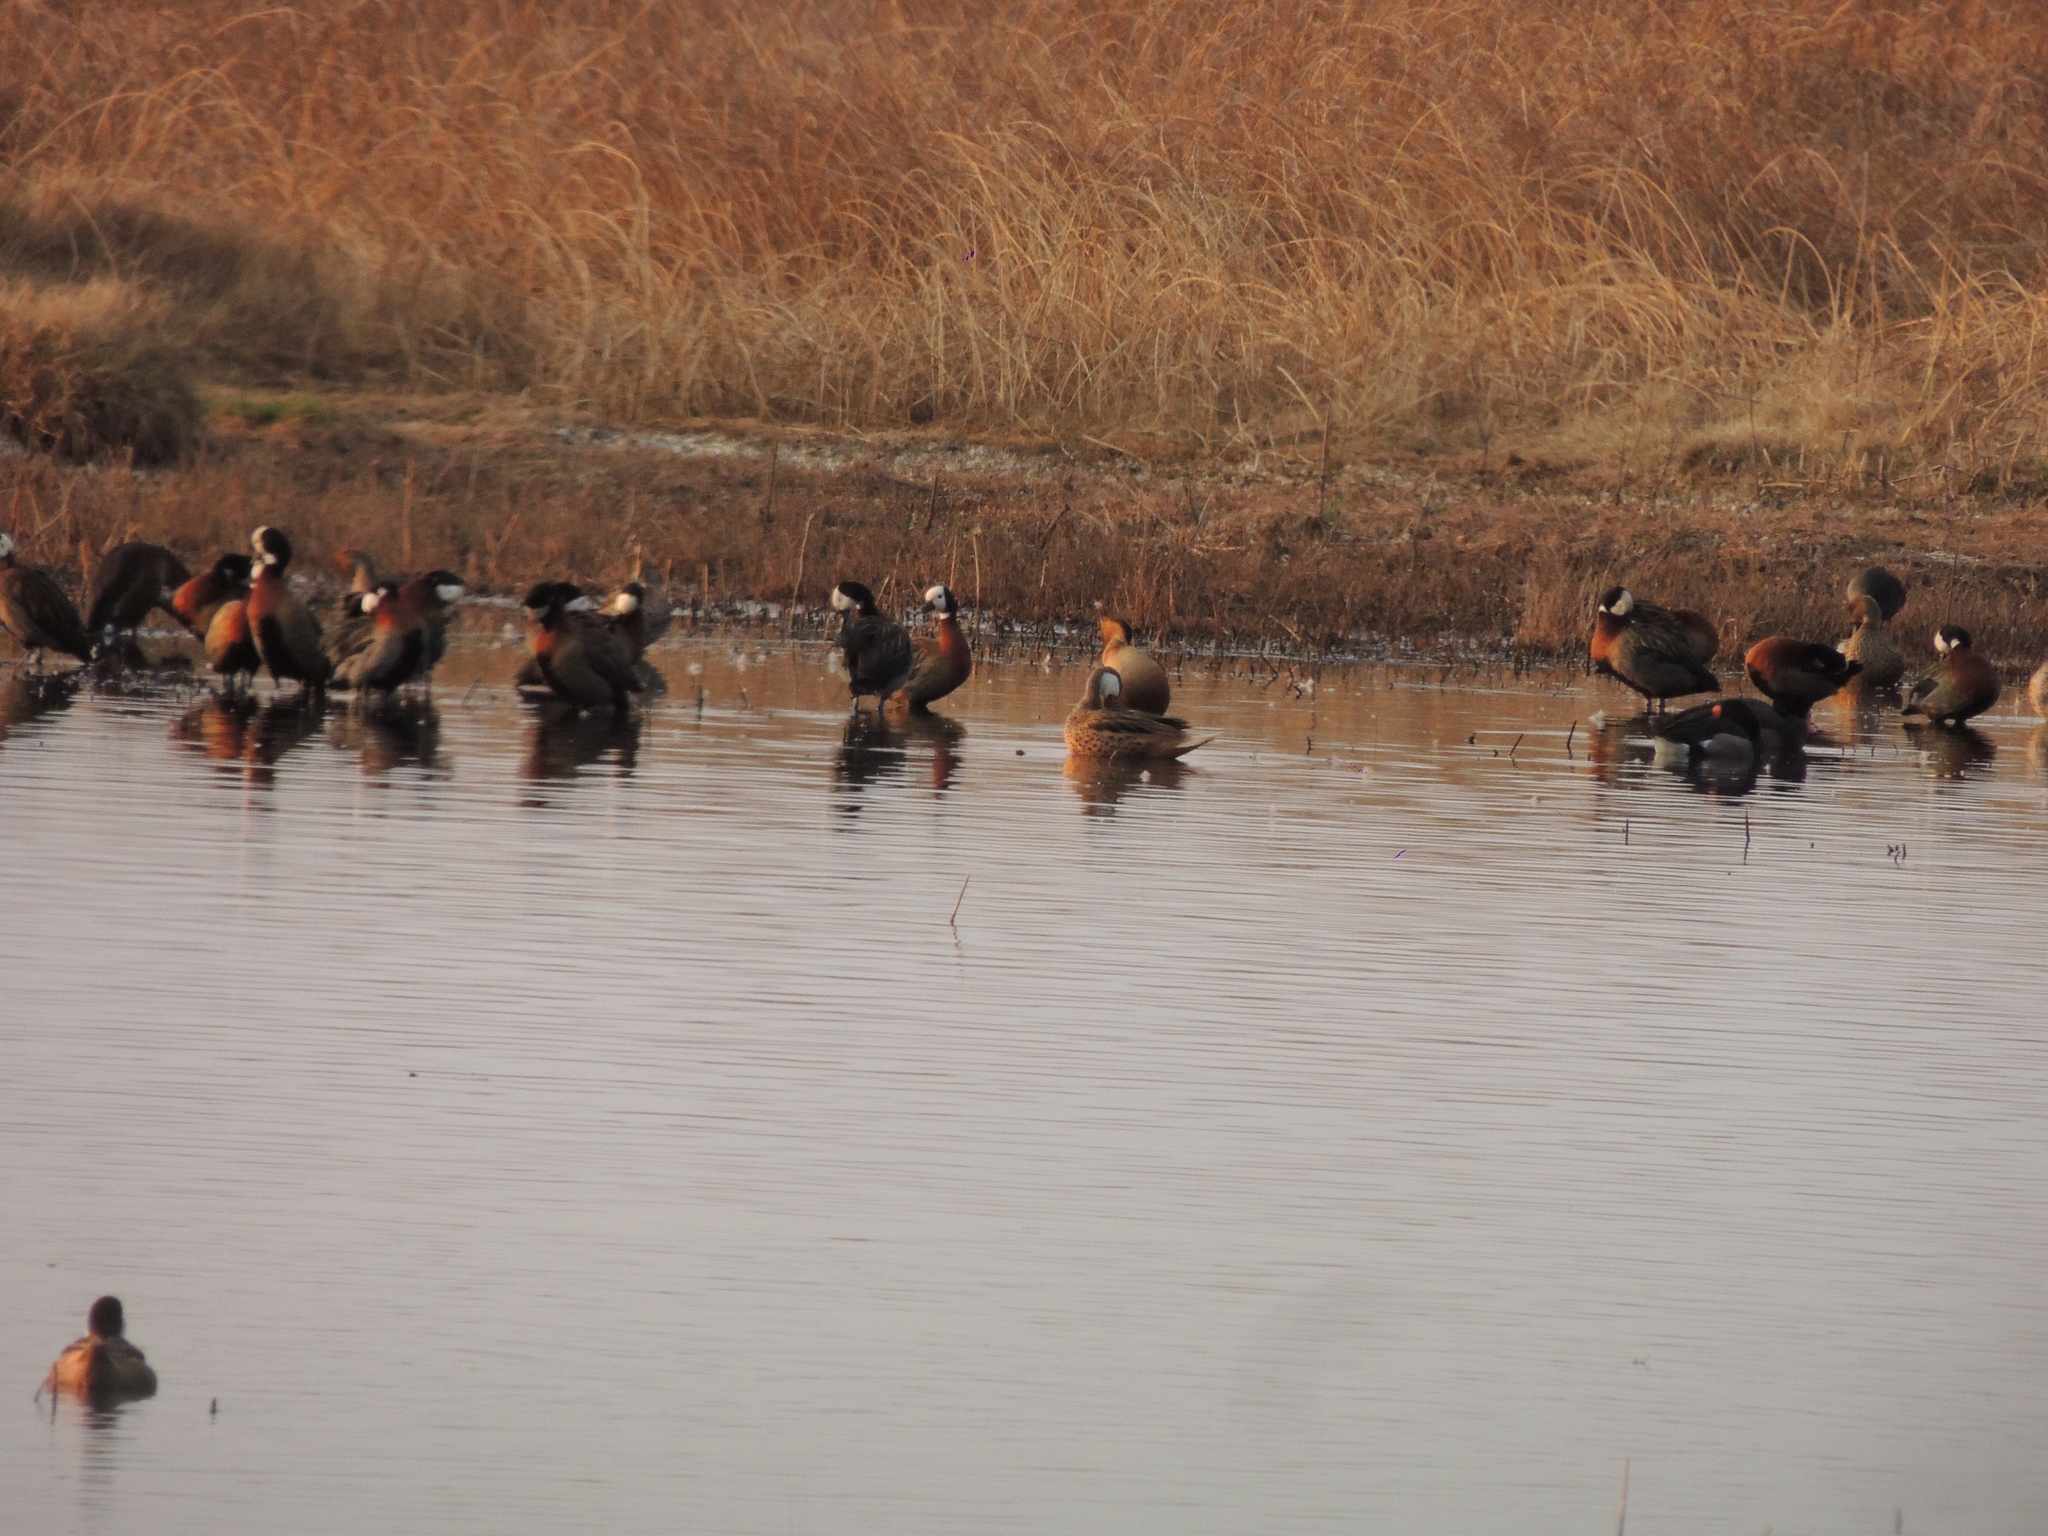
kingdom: Animalia
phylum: Chordata
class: Aves
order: Anseriformes
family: Anatidae
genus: Anas
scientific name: Anas bahamensis
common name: White-cheeked pintail
